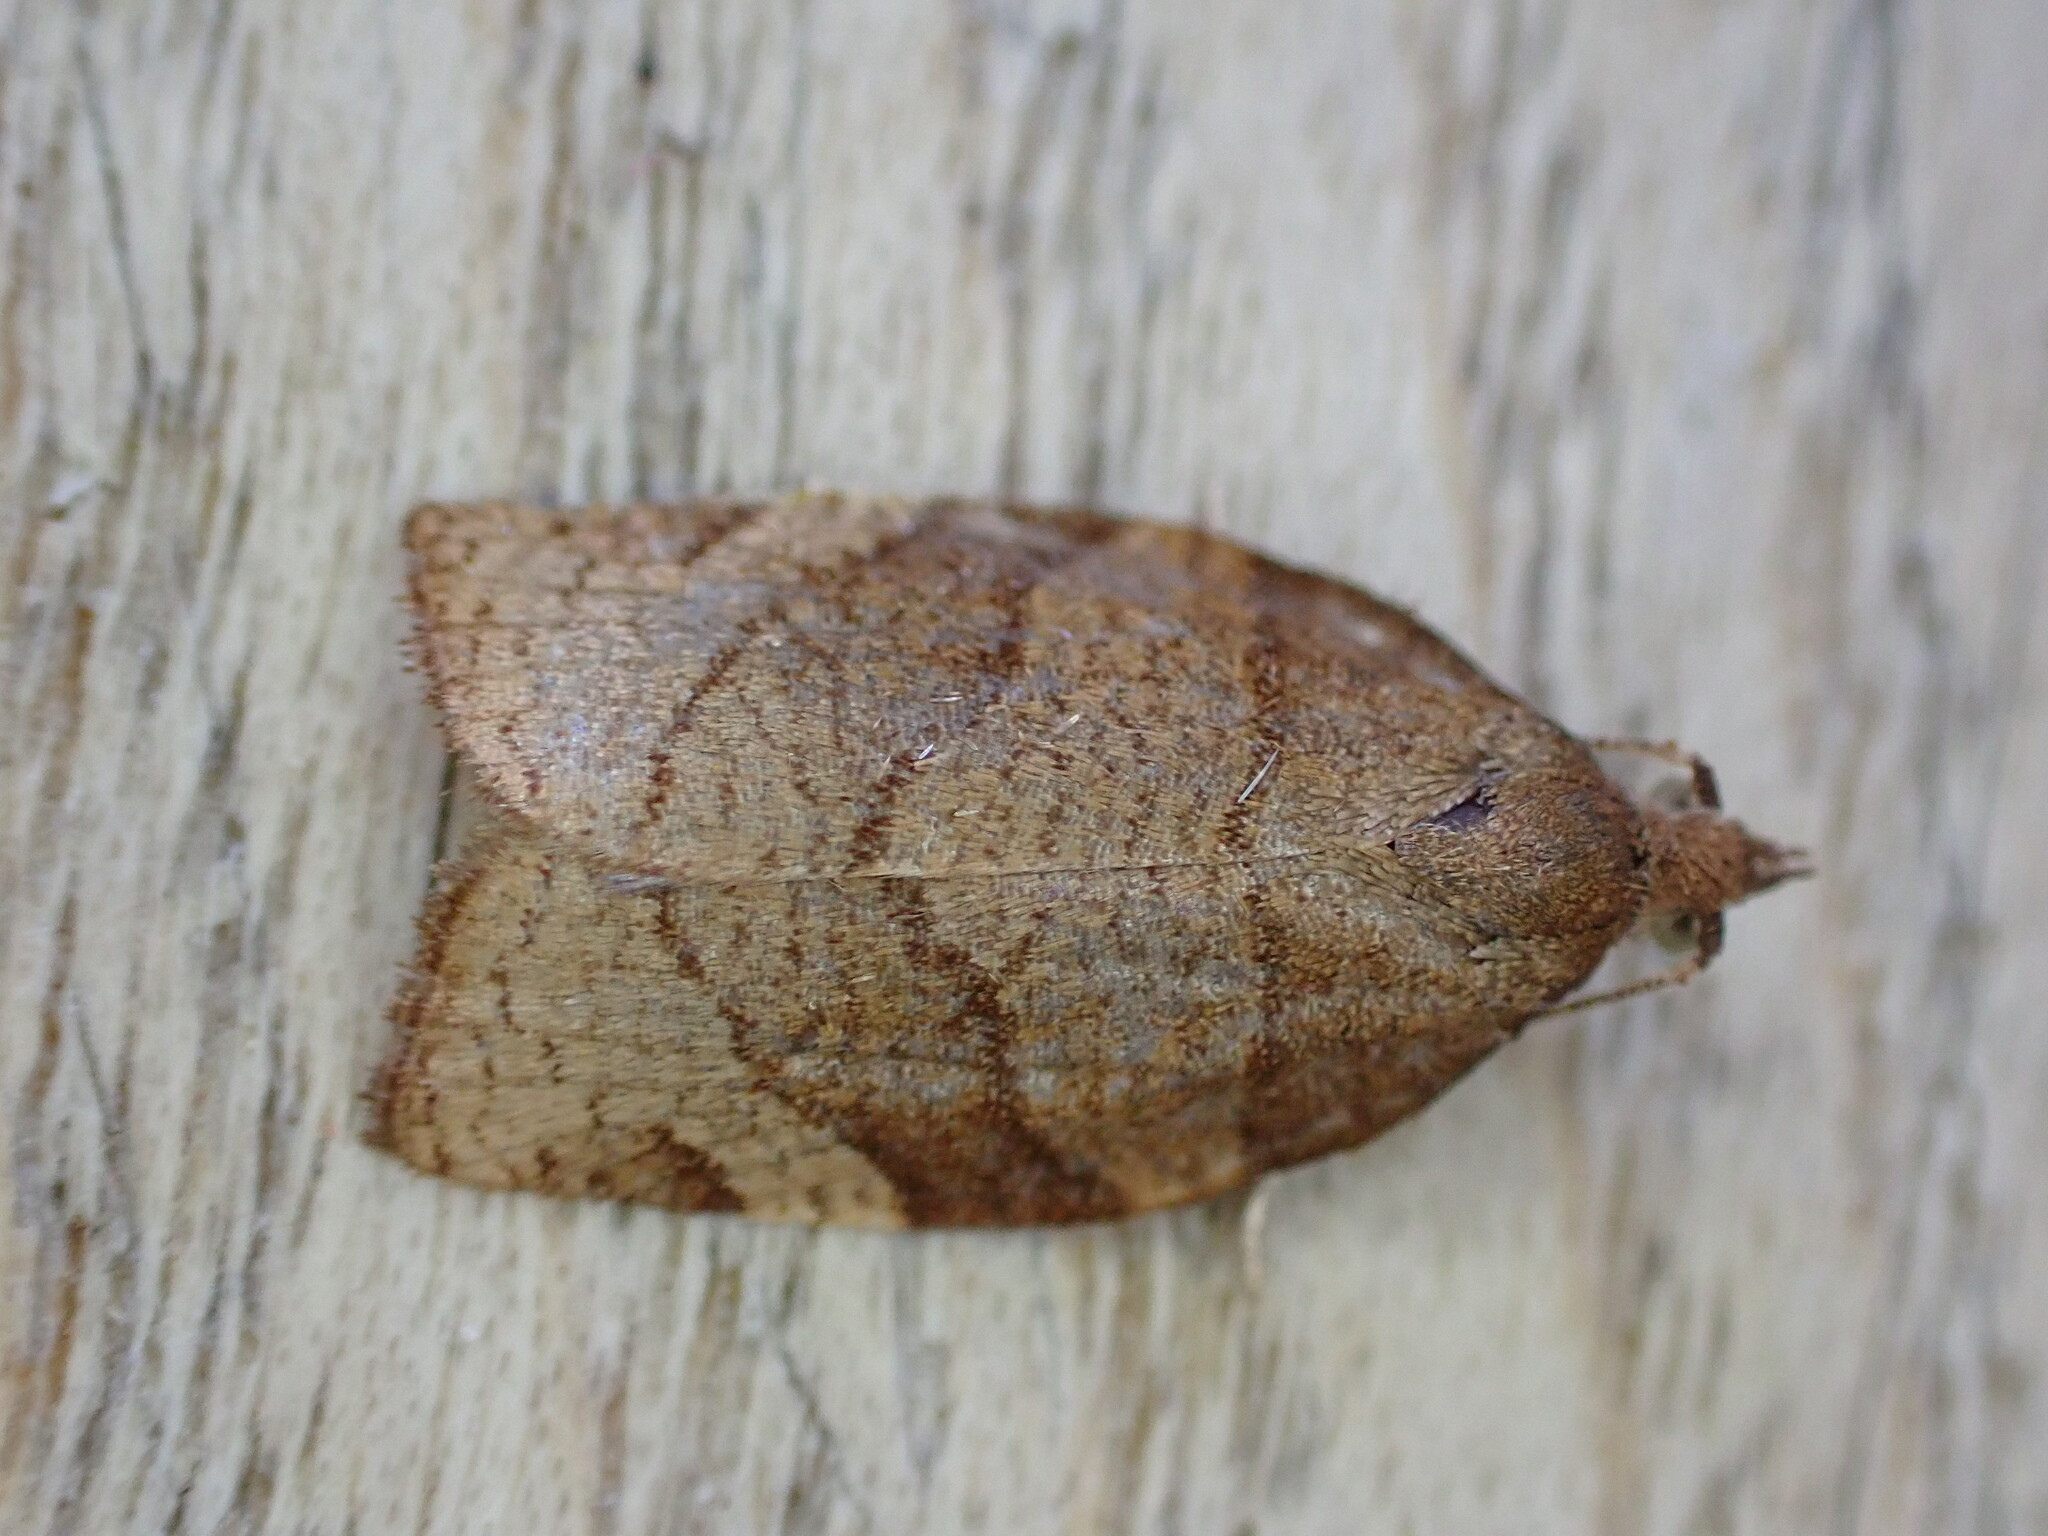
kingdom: Animalia
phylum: Arthropoda
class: Insecta
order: Lepidoptera
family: Tortricidae
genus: Pandemis
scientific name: Pandemis cerasana
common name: Barred fruit-tree tortrix
